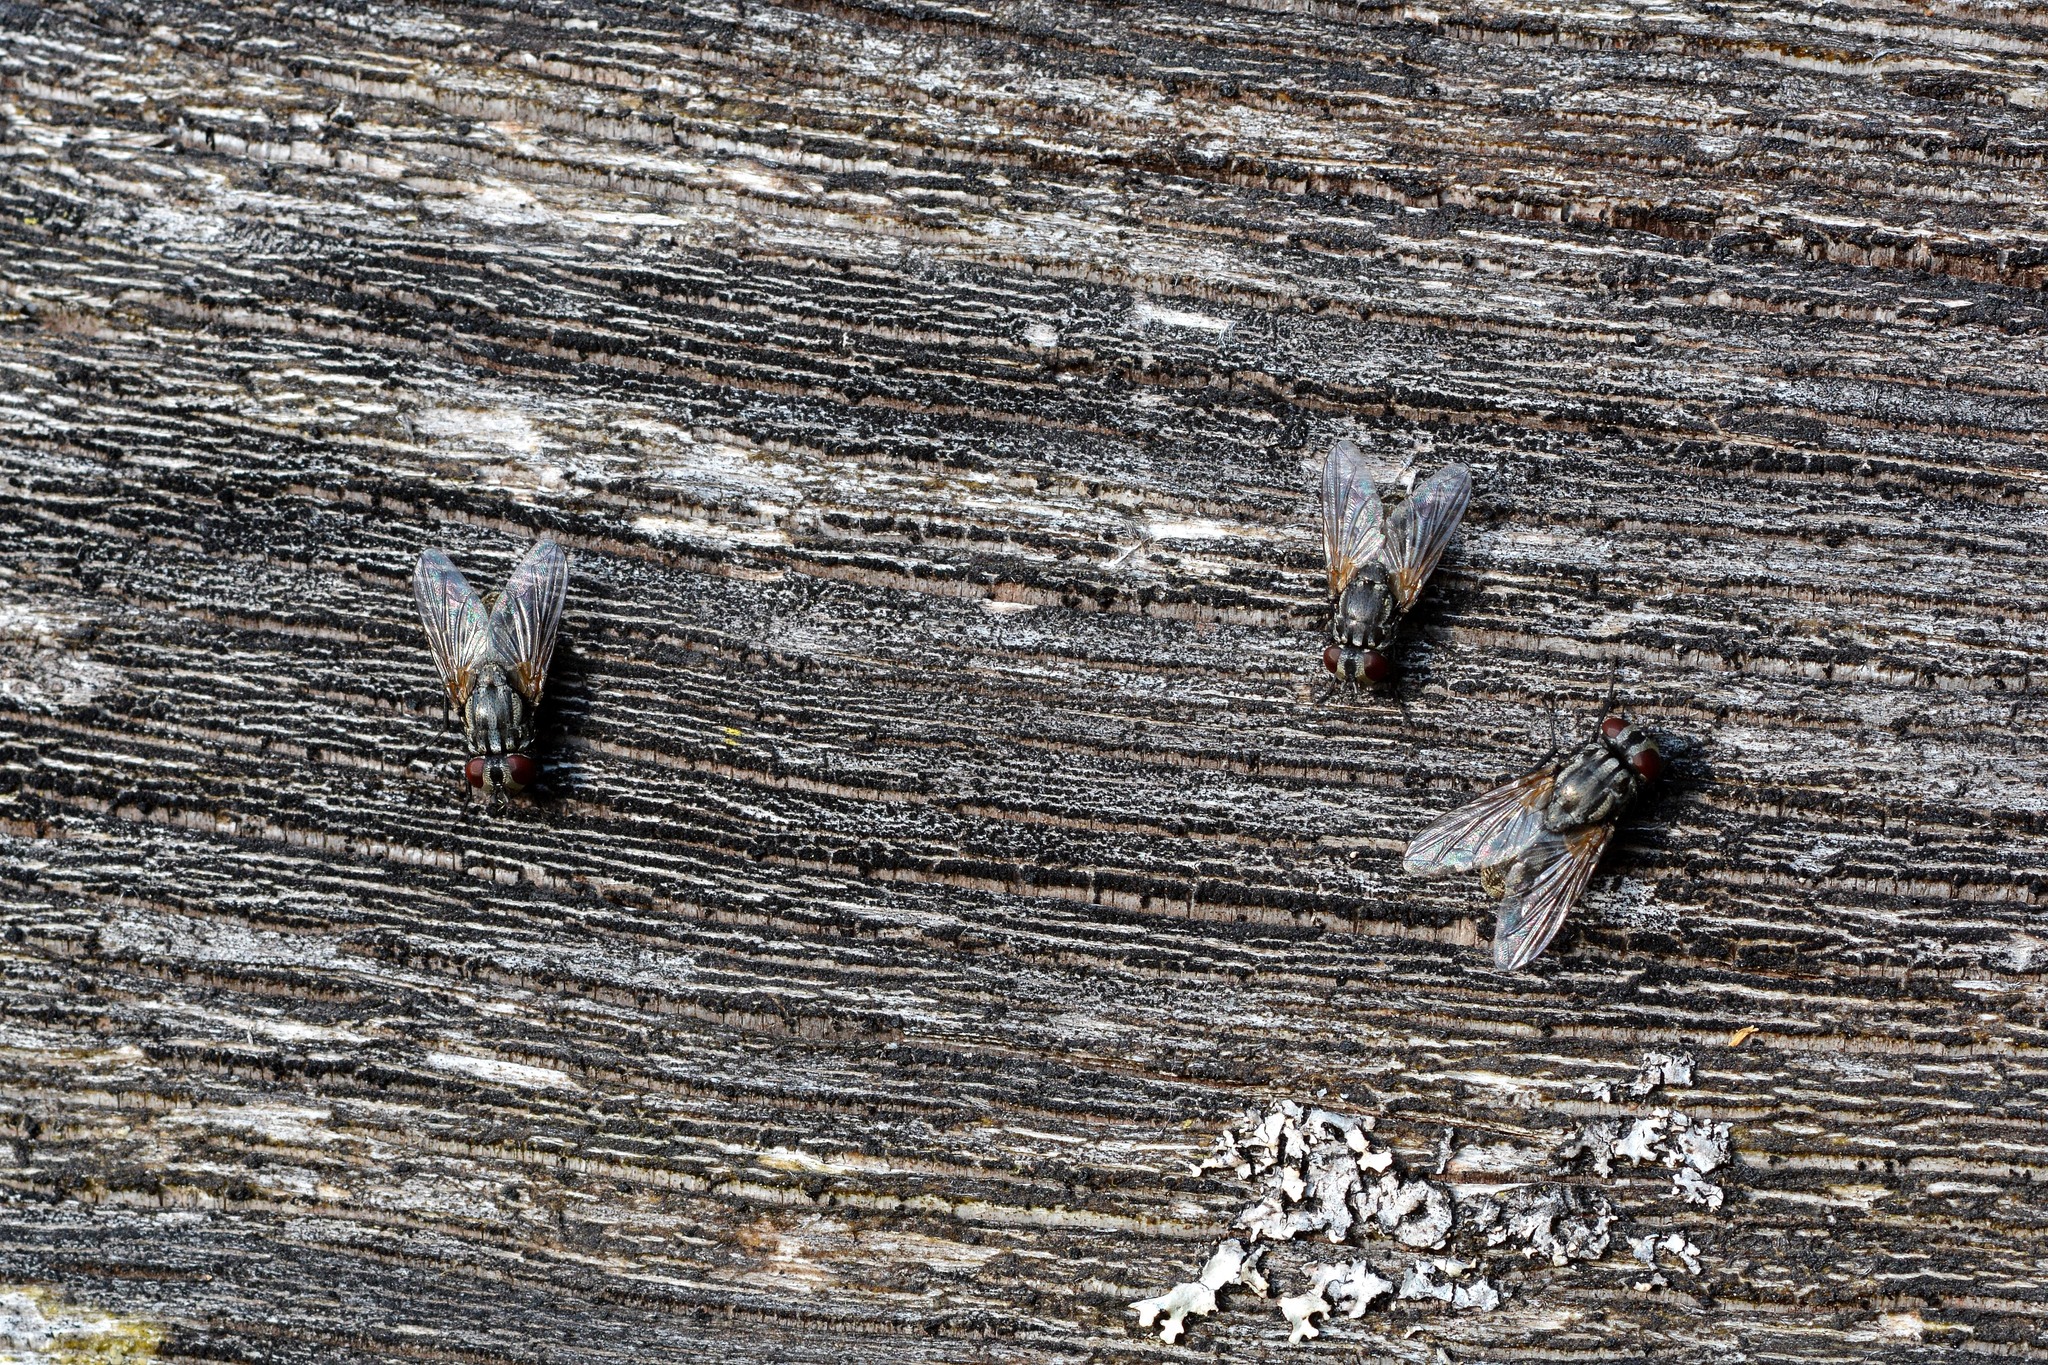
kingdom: Animalia
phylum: Arthropoda
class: Insecta
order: Diptera
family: Muscidae
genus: Musca
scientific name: Musca autumnalis
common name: Face fly
